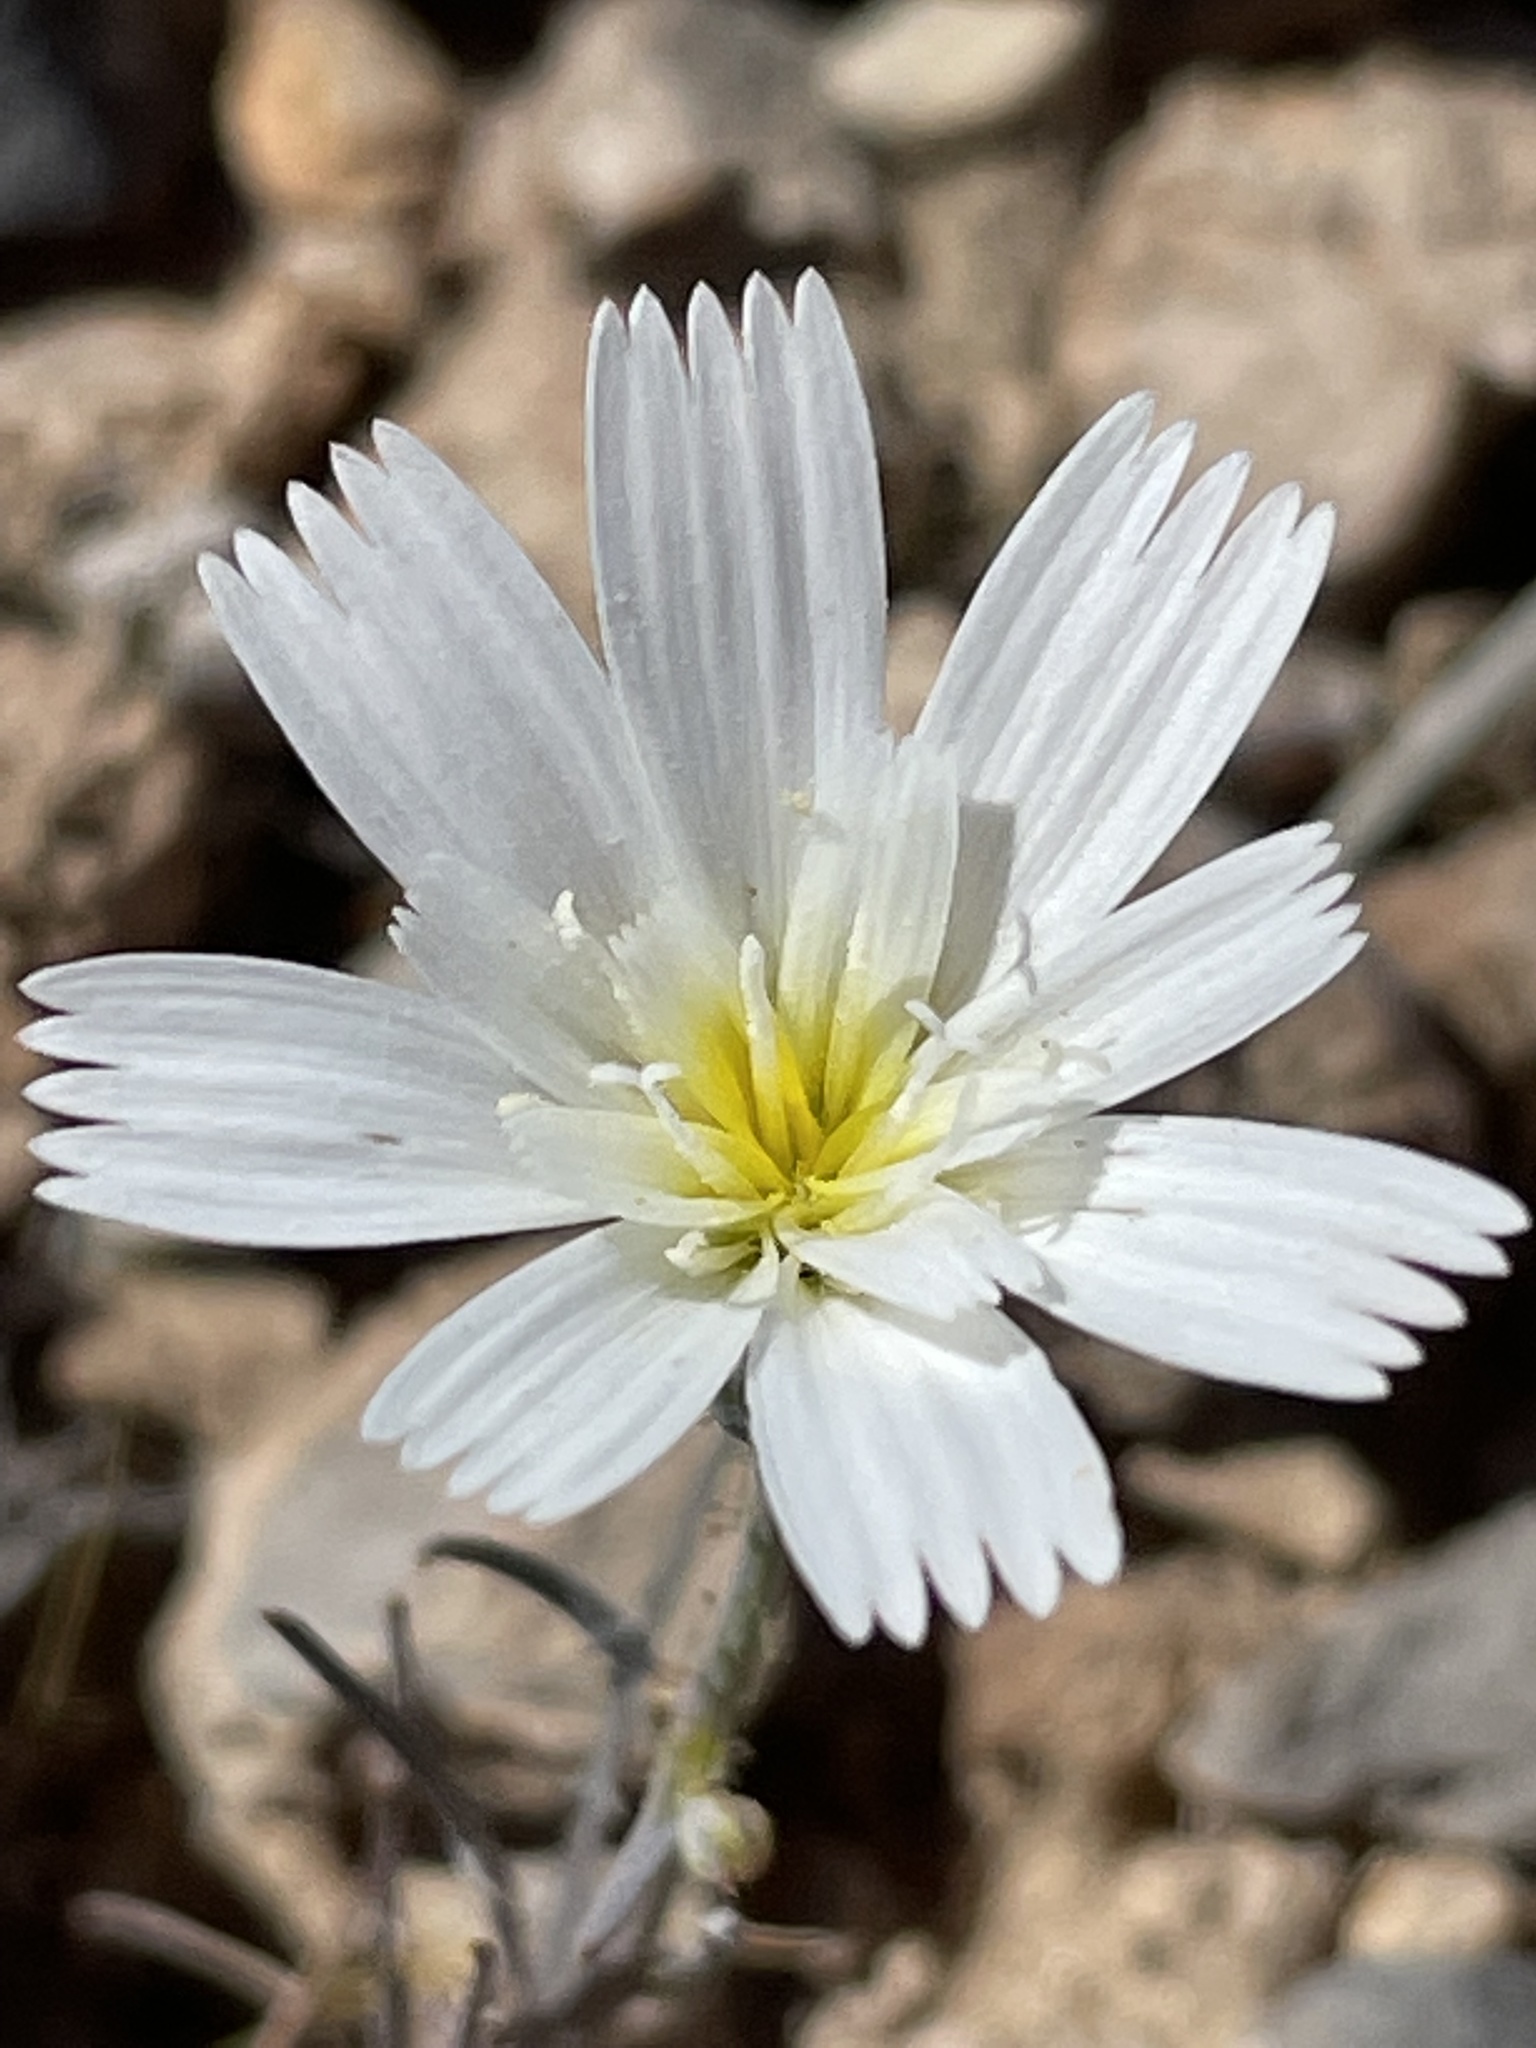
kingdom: Plantae
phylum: Tracheophyta
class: Magnoliopsida
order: Asterales
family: Asteraceae
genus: Calycoseris
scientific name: Calycoseris wrightii
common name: White tackstem
